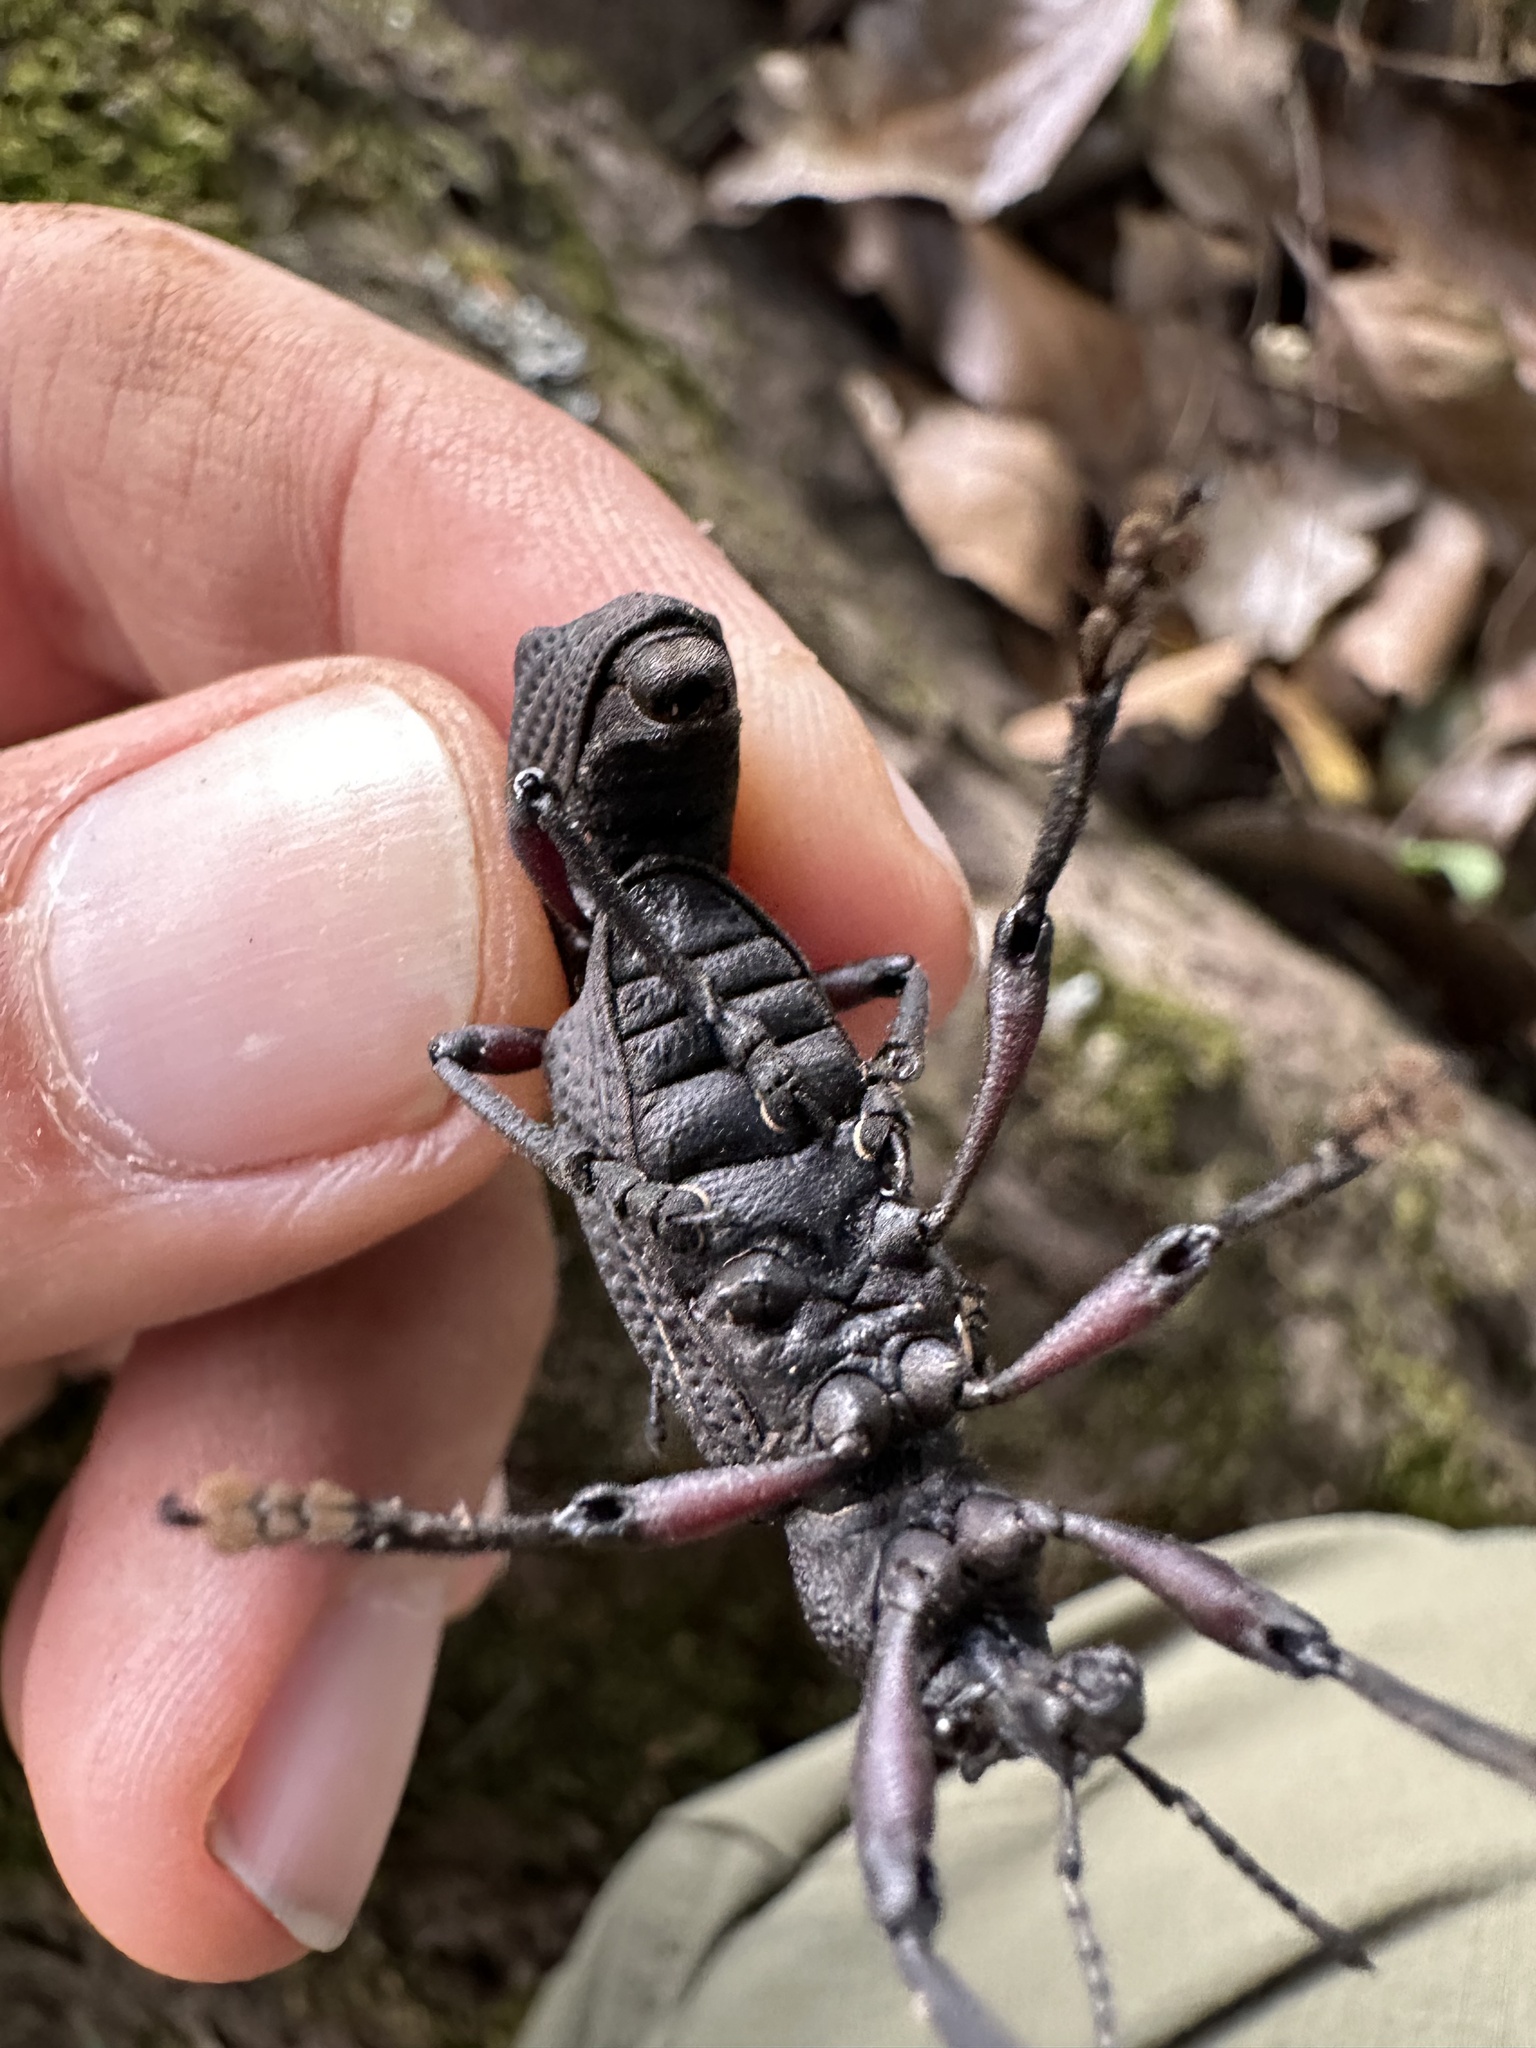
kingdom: Animalia
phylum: Arthropoda
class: Insecta
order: Coleoptera
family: Curculionidae
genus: Aegorhinus
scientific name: Aegorhinus
